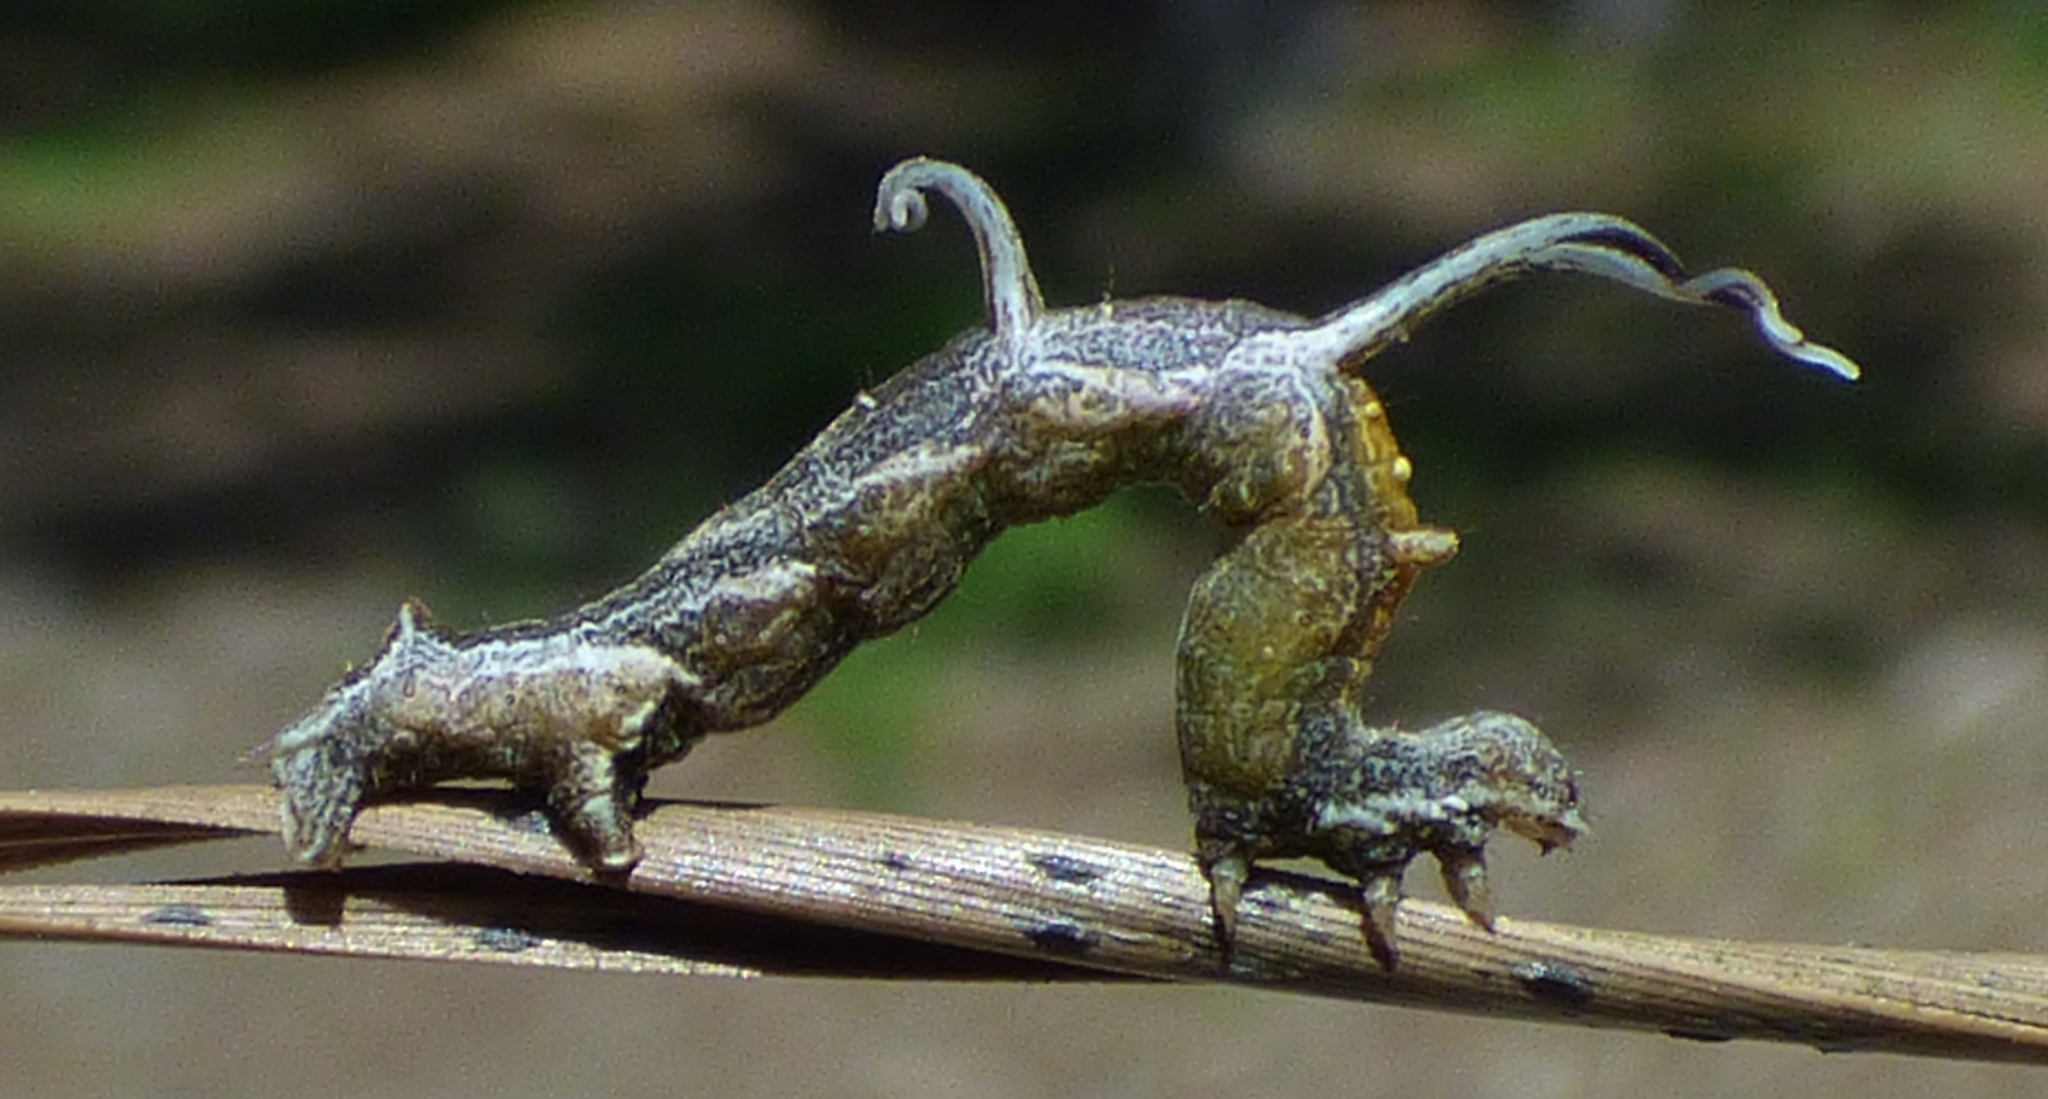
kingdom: Animalia
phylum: Arthropoda
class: Insecta
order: Lepidoptera
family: Geometridae
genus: Nematocampa
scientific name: Nematocampa resistaria
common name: Horned spanworm moth
